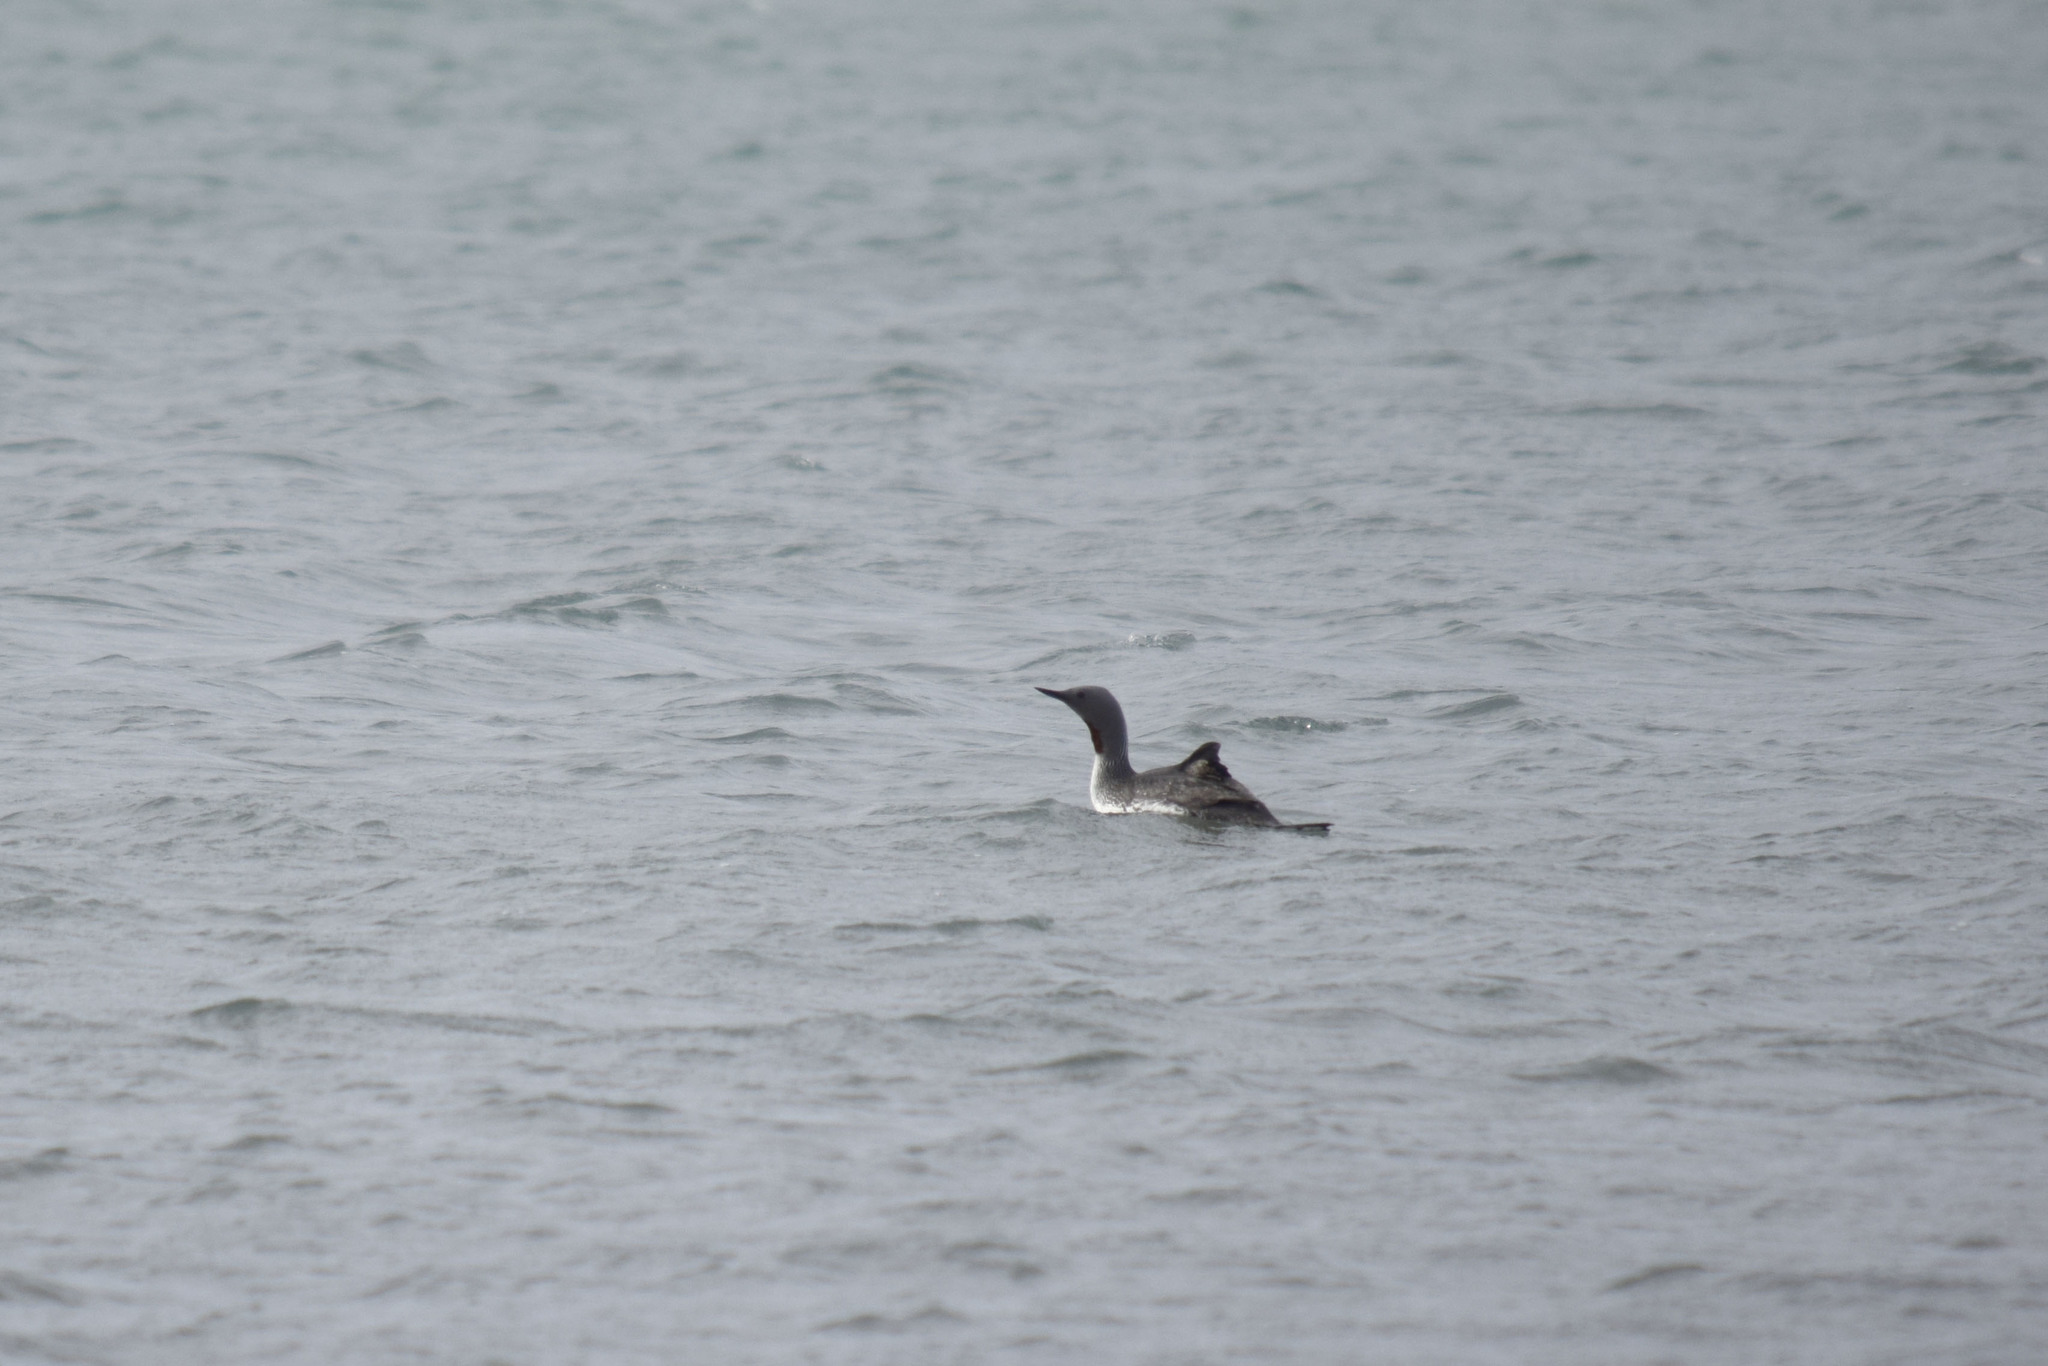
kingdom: Animalia
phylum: Chordata
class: Aves
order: Gaviiformes
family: Gaviidae
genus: Gavia
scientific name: Gavia stellata
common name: Red-throated loon
